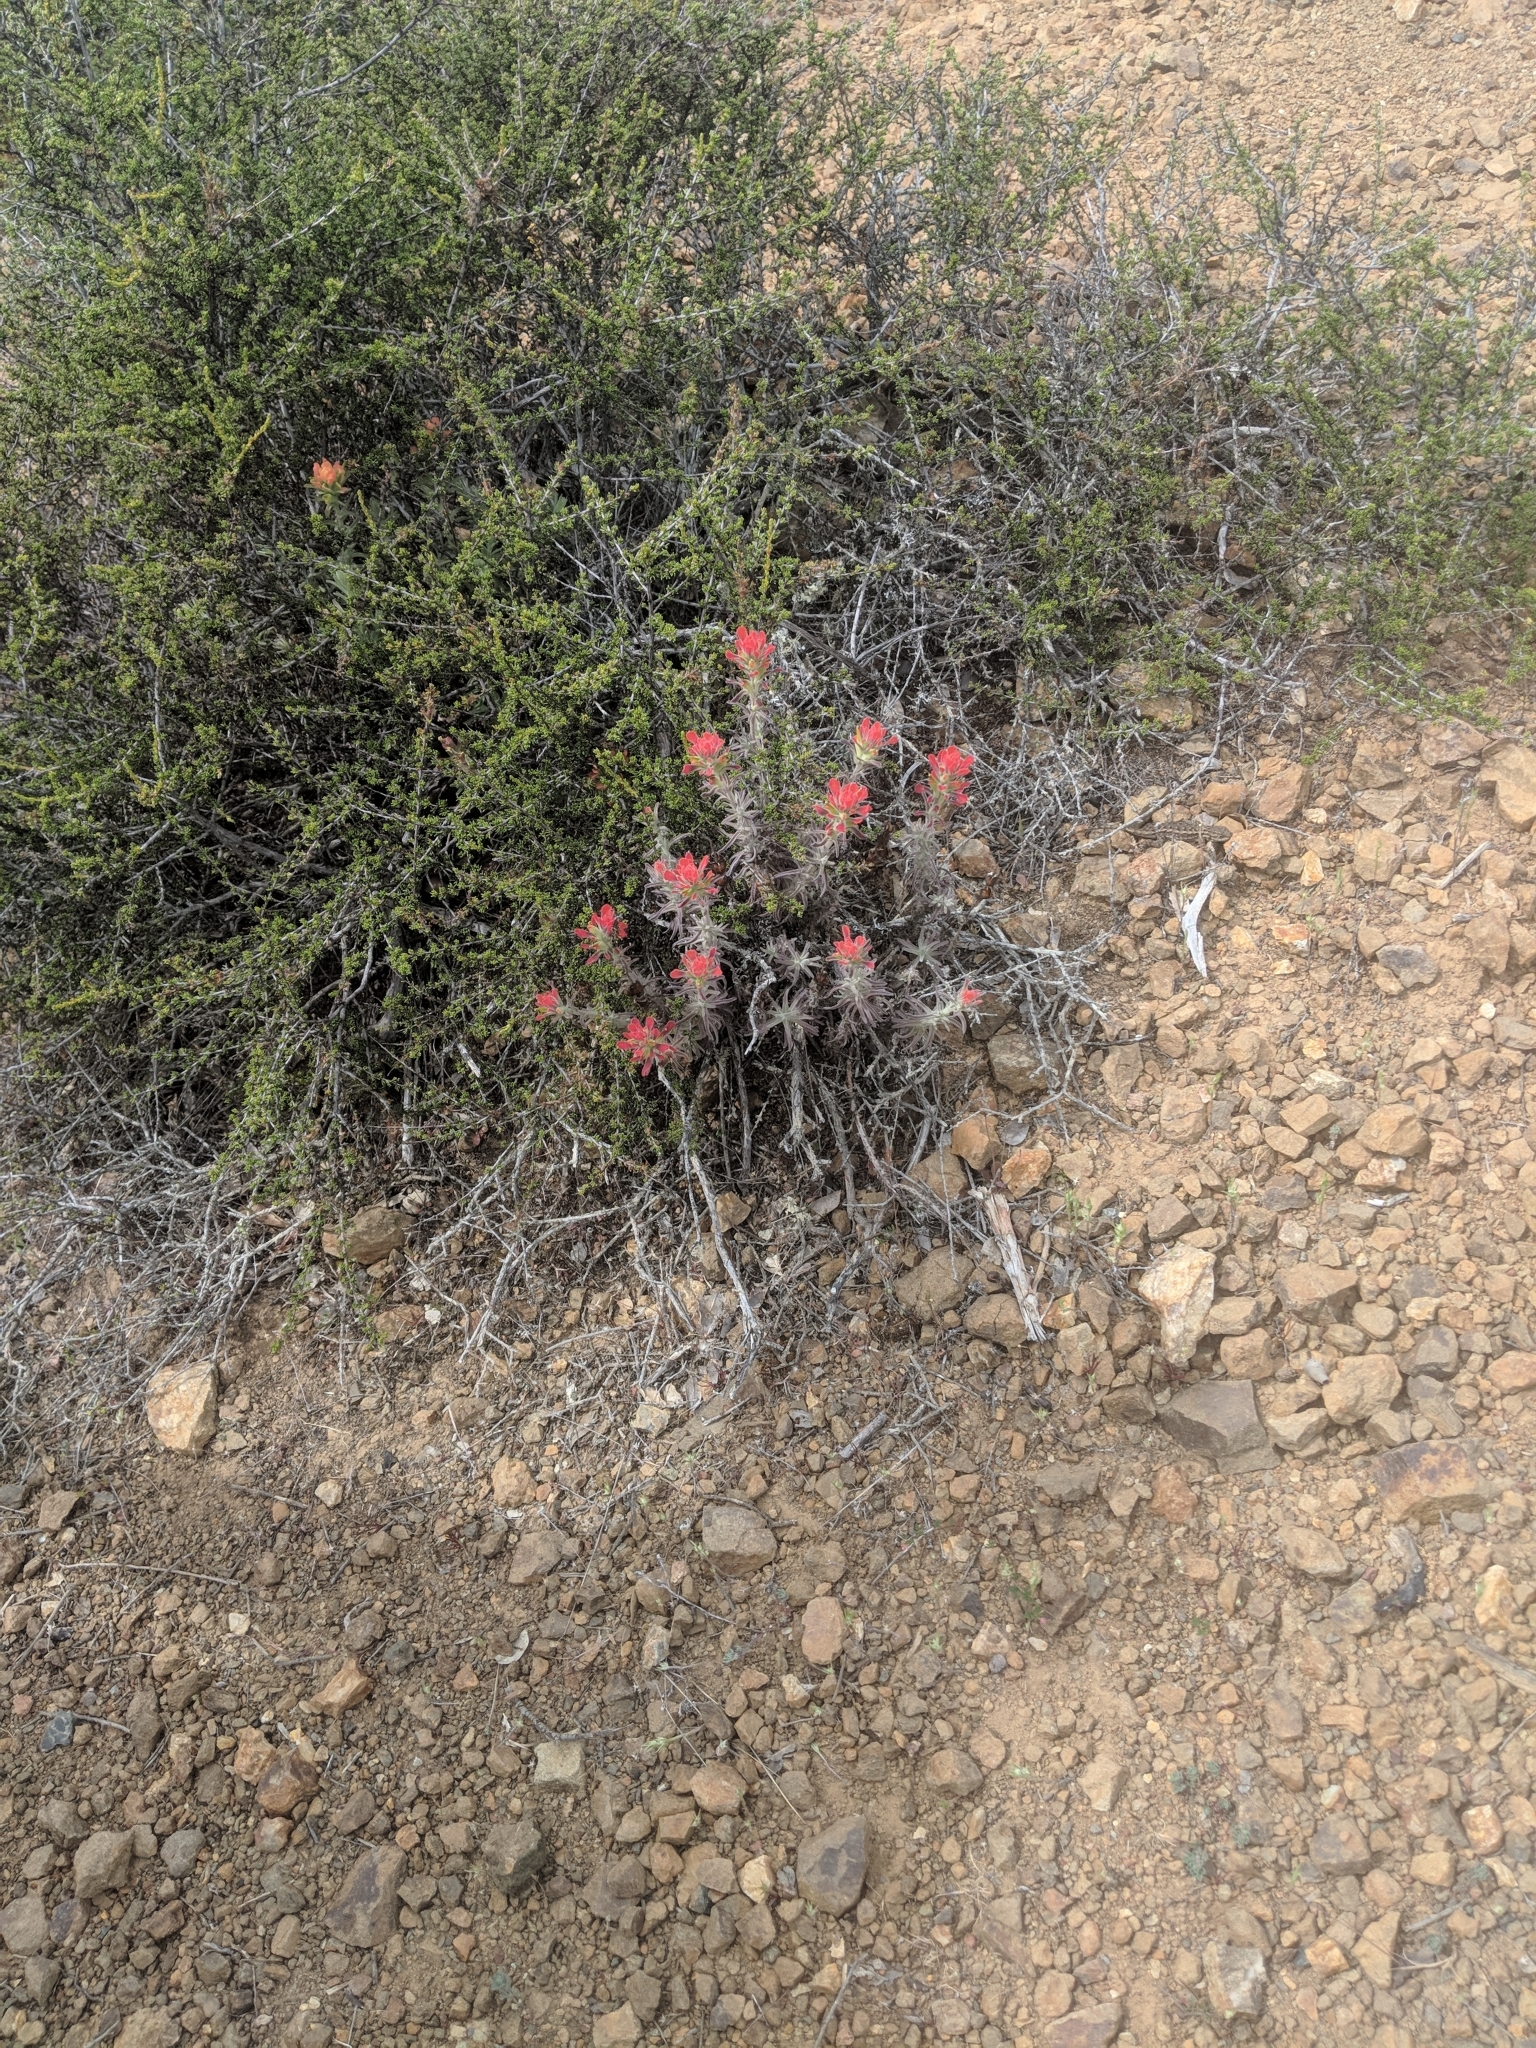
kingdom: Plantae
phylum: Tracheophyta
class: Magnoliopsida
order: Lamiales
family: Orobanchaceae
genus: Castilleja
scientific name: Castilleja foliolosa
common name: Woolly indian paintbrush
